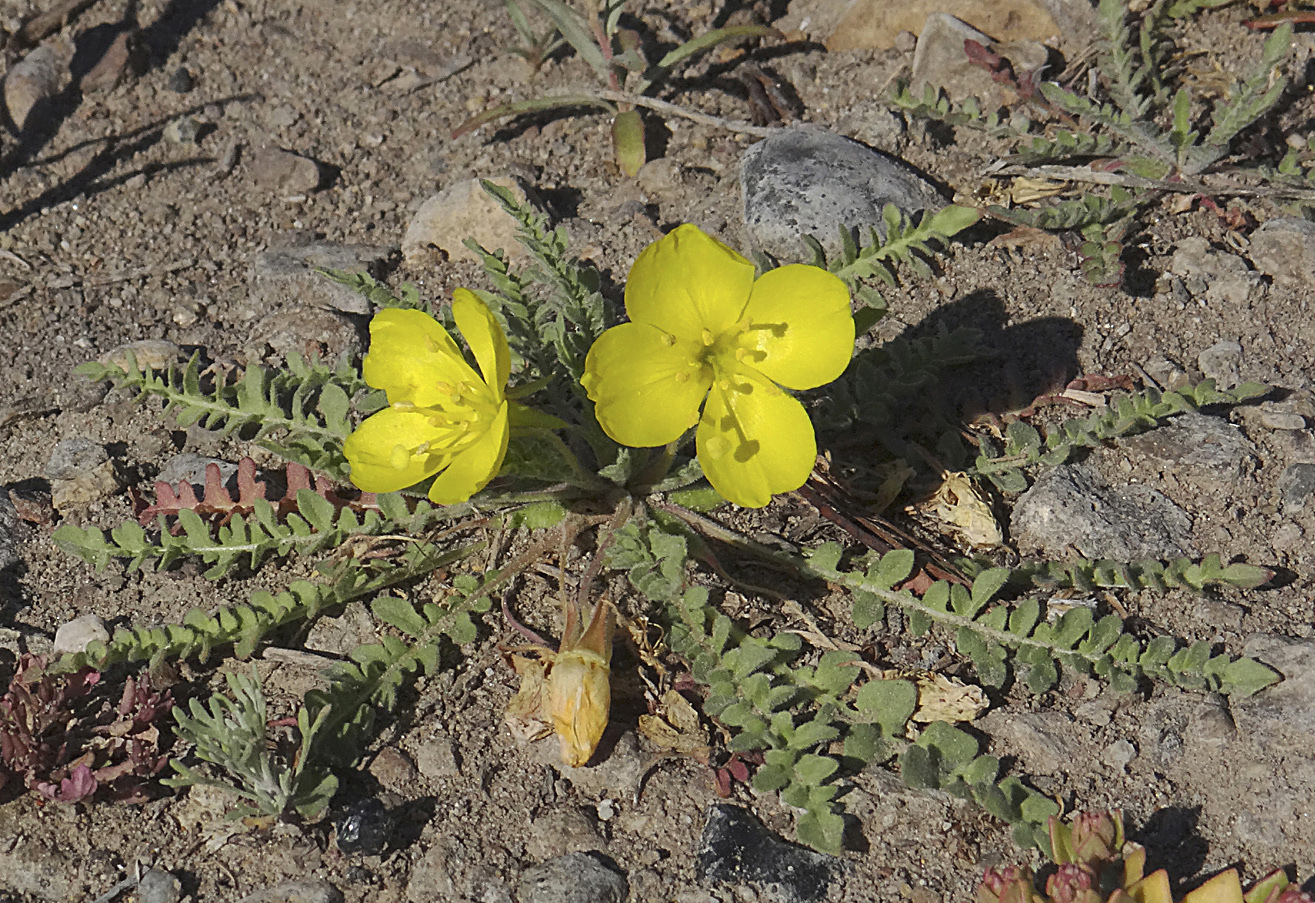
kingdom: Plantae
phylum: Tracheophyta
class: Magnoliopsida
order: Myrtales
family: Onagraceae
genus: Taraxia
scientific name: Taraxia tanacetifolia
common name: Tansyleaf evening primrose
